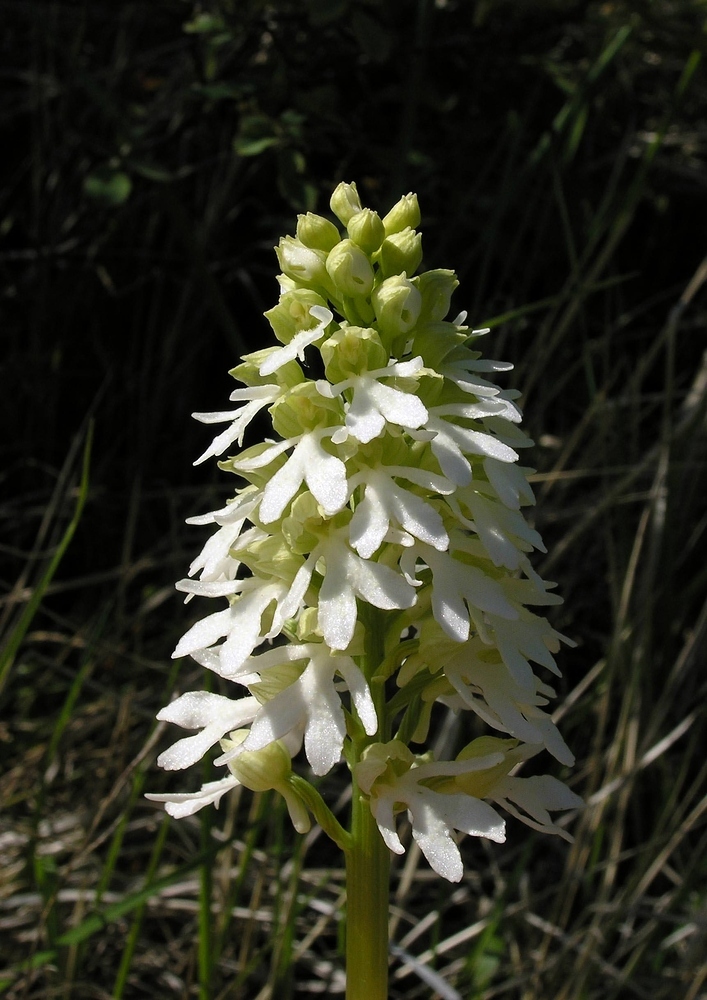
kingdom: Plantae
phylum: Tracheophyta
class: Liliopsida
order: Asparagales
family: Orchidaceae
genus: Orchis
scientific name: Orchis purpurea
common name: Lady orchid
